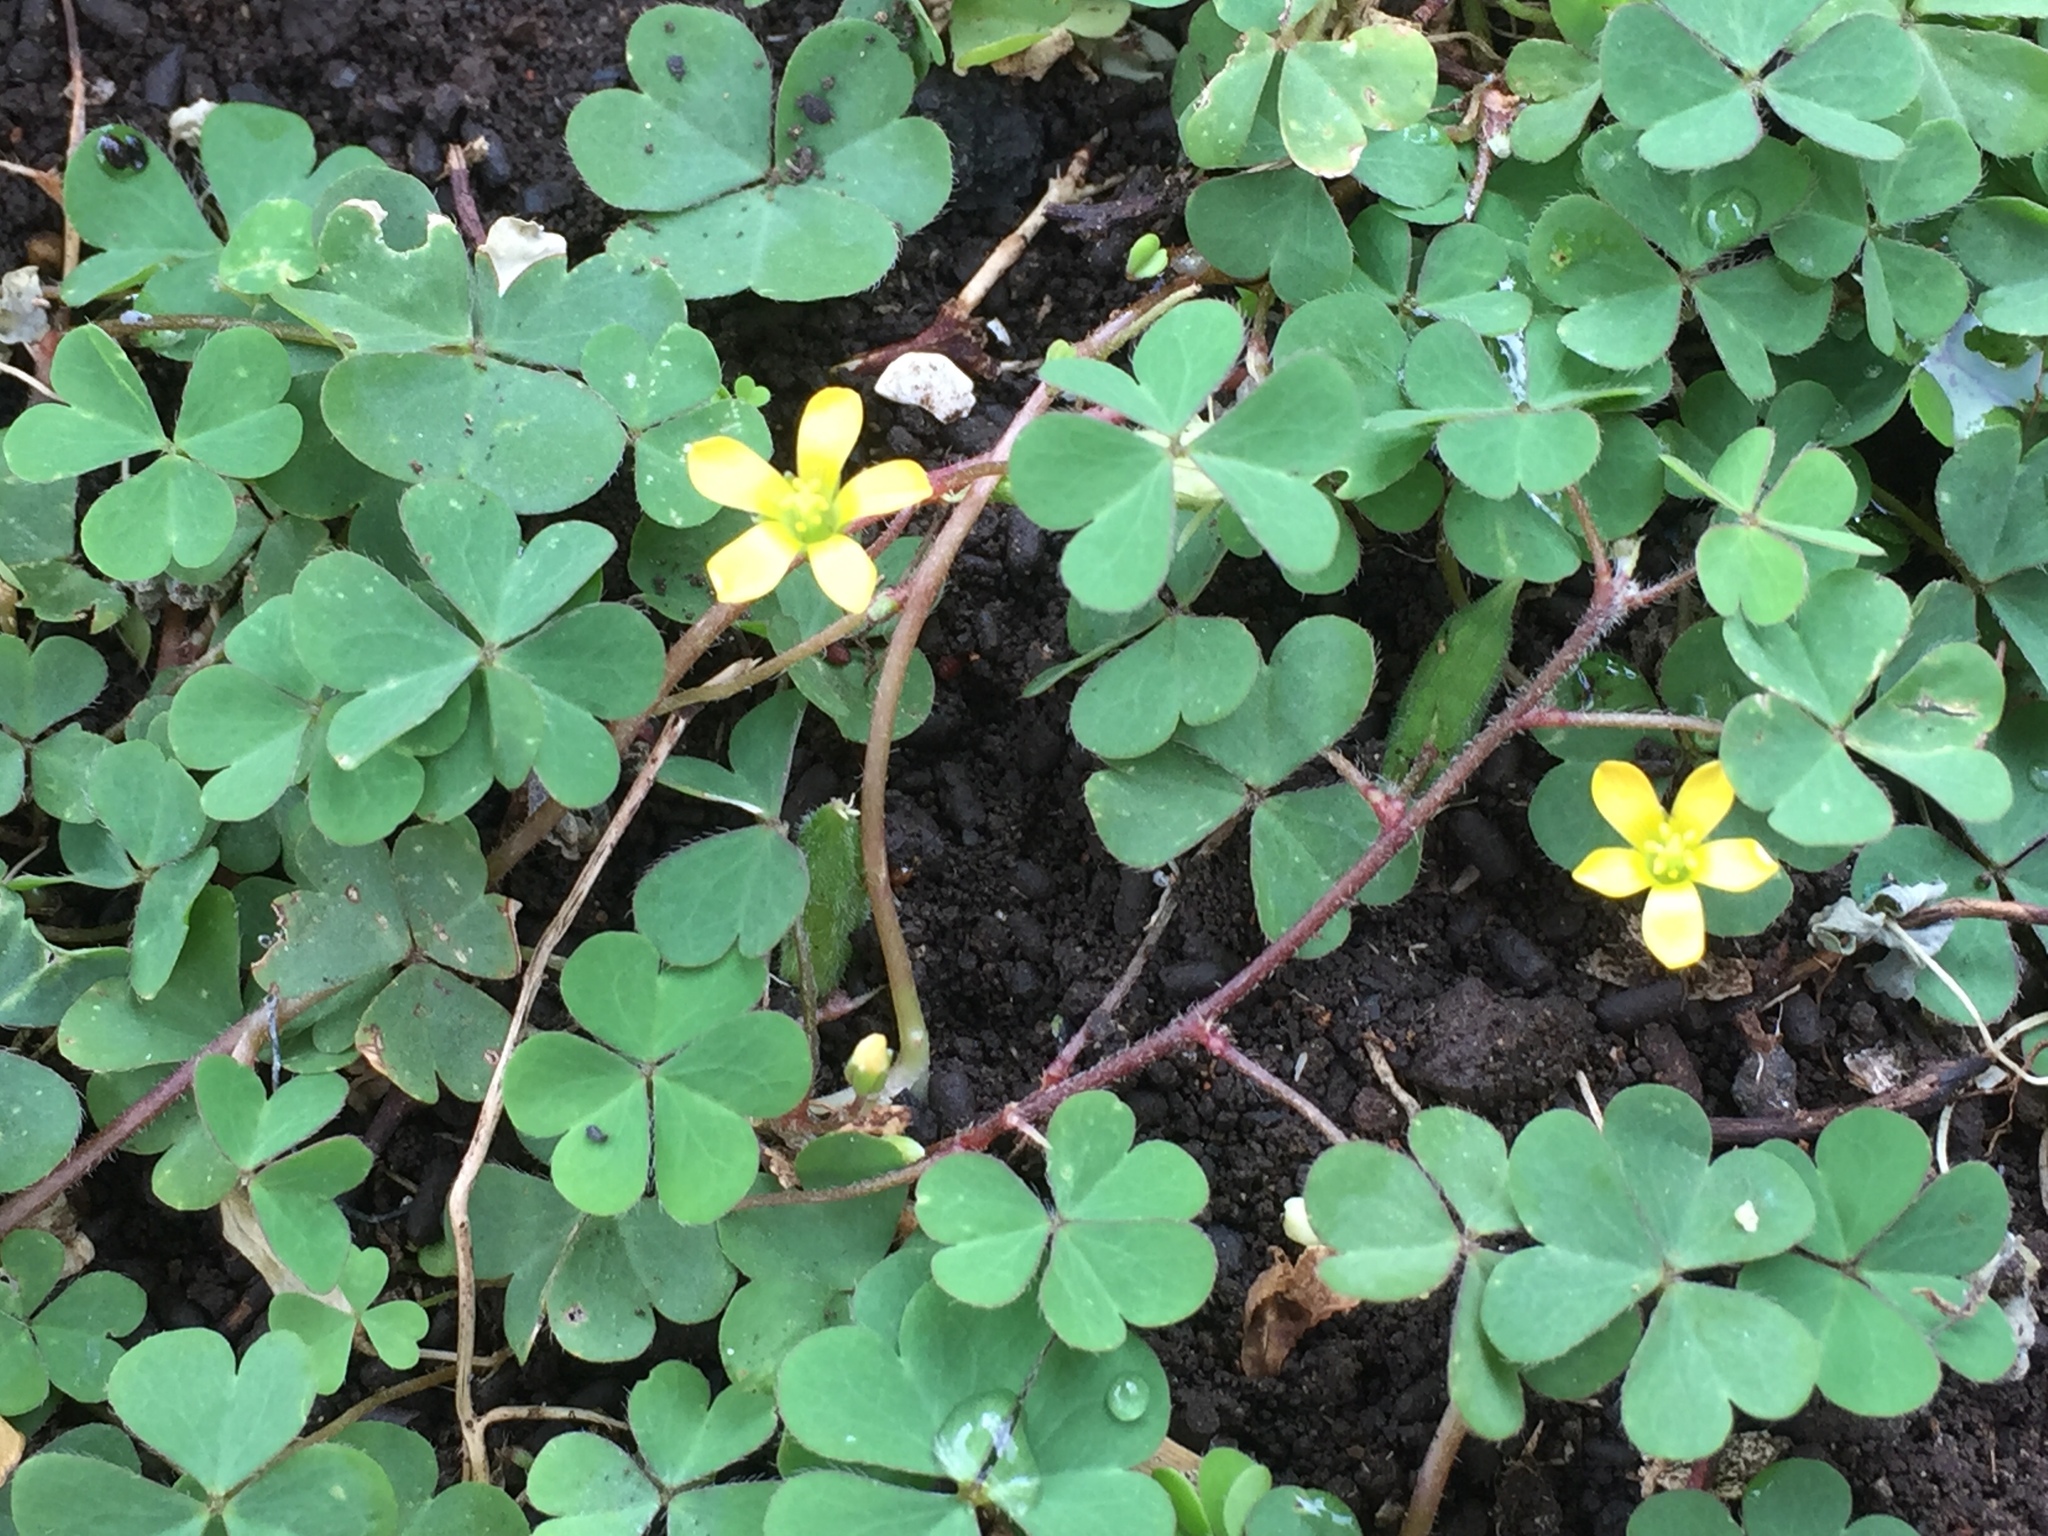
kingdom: Plantae
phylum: Tracheophyta
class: Magnoliopsida
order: Oxalidales
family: Oxalidaceae
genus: Oxalis
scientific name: Oxalis corniculata
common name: Procumbent yellow-sorrel
